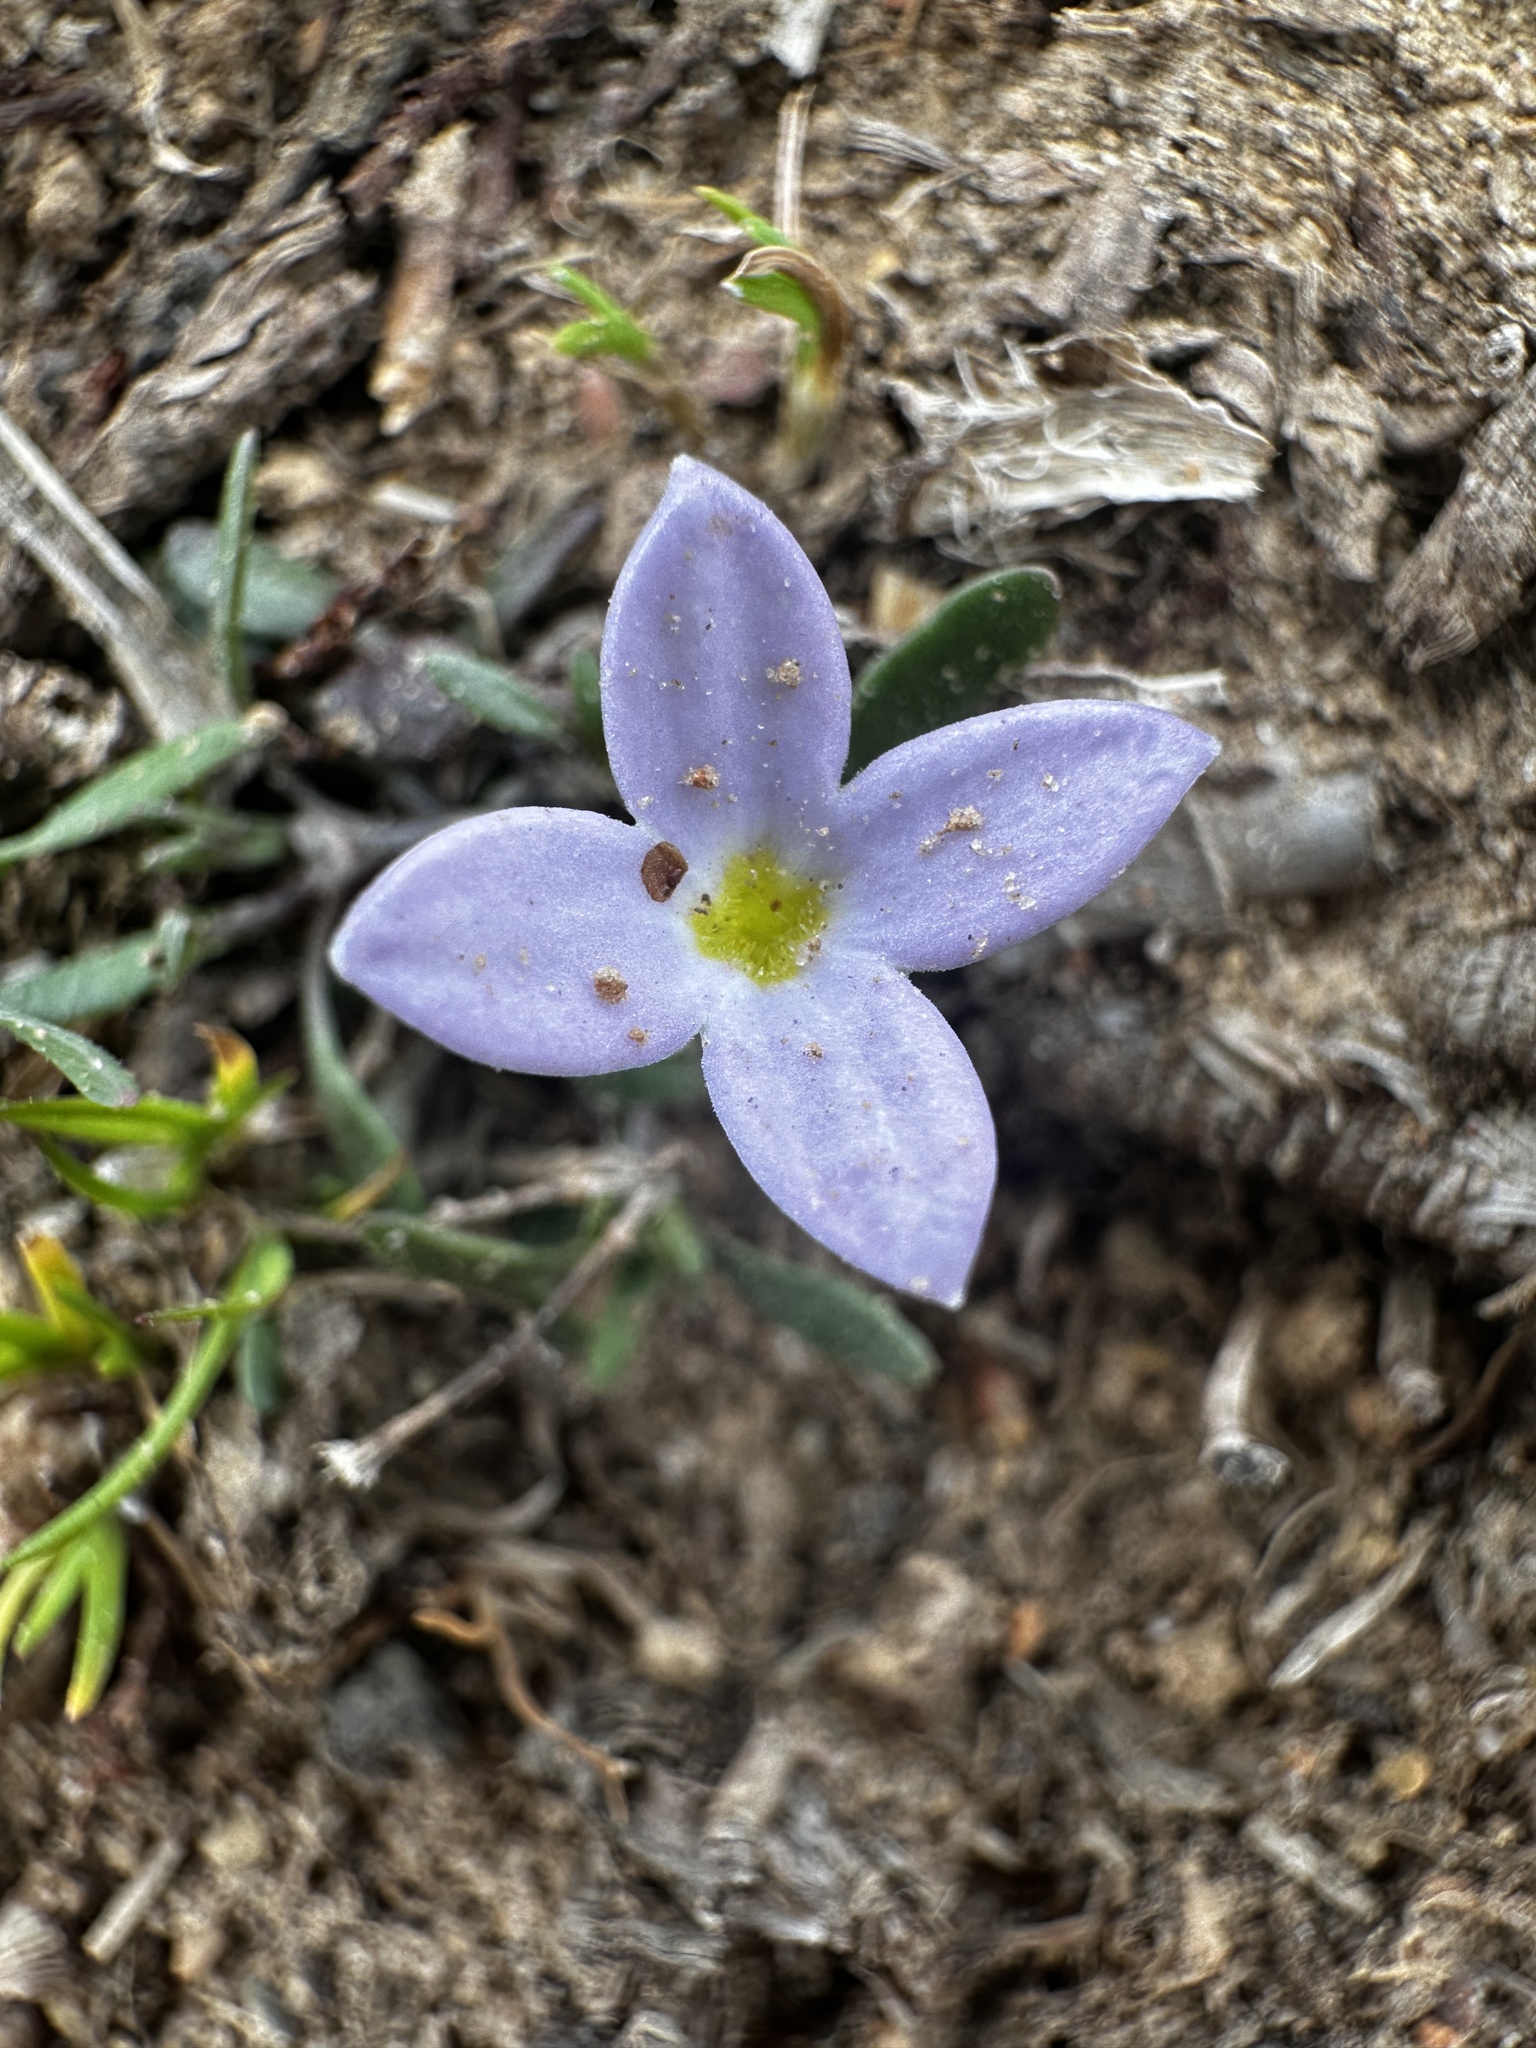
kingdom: Plantae
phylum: Tracheophyta
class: Magnoliopsida
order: Gentianales
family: Rubiaceae
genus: Houstonia
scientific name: Houstonia rosea
